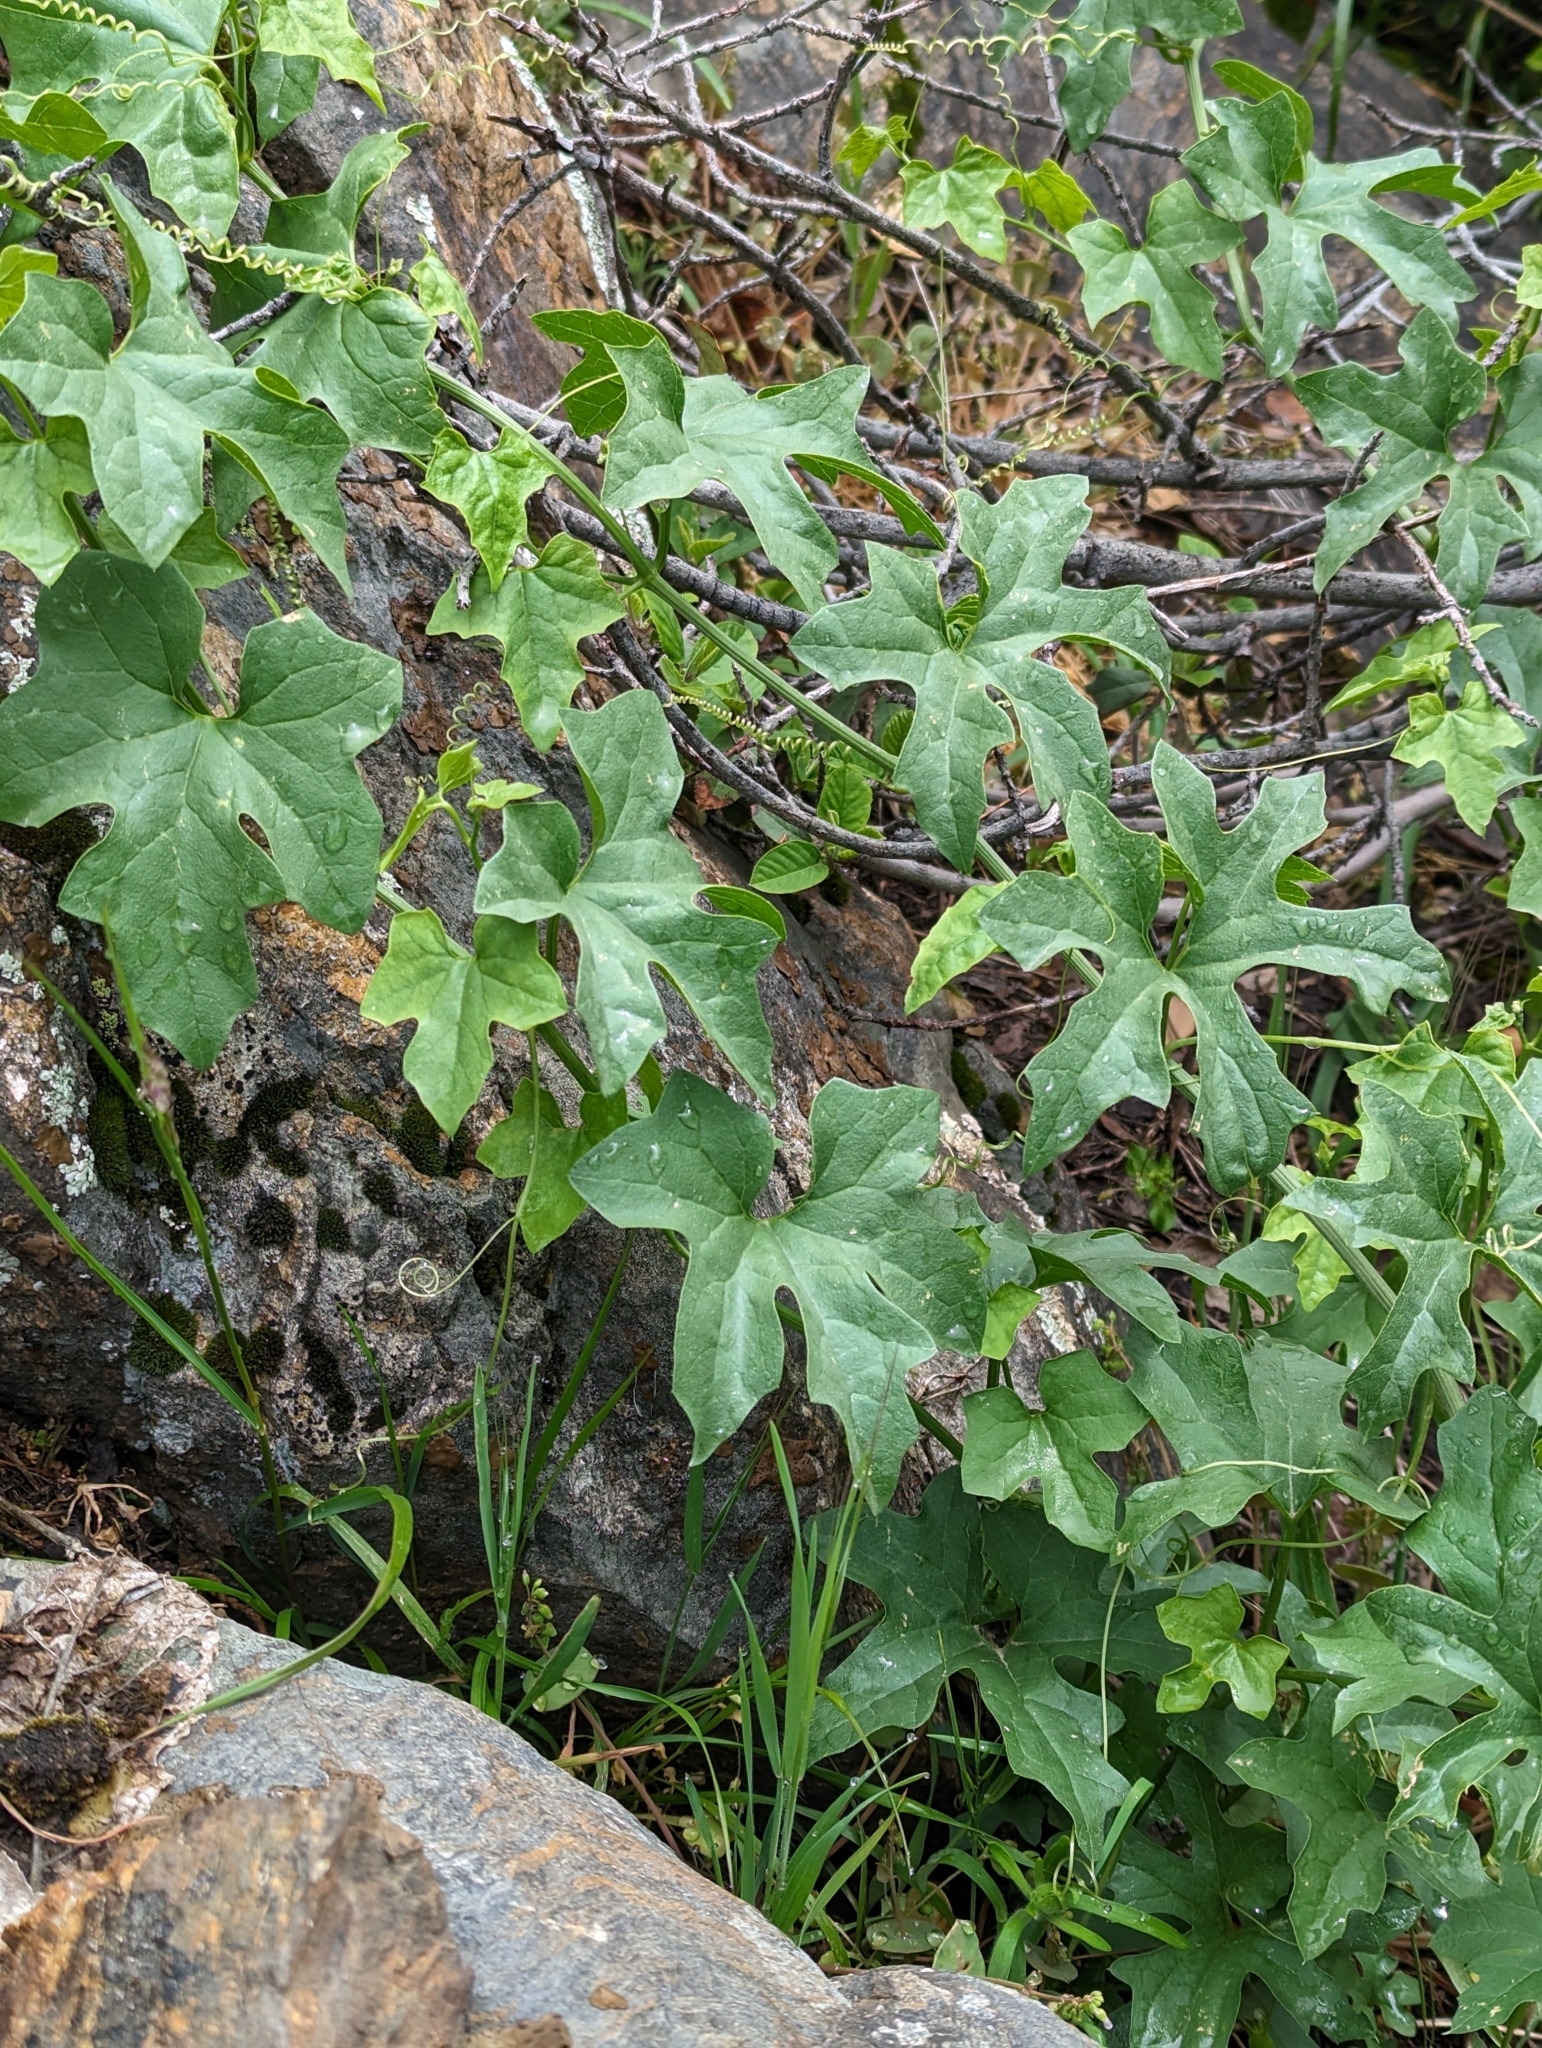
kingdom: Plantae
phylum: Tracheophyta
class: Magnoliopsida
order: Cucurbitales
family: Cucurbitaceae
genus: Marah
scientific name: Marah horrida
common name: Sierra manroot
